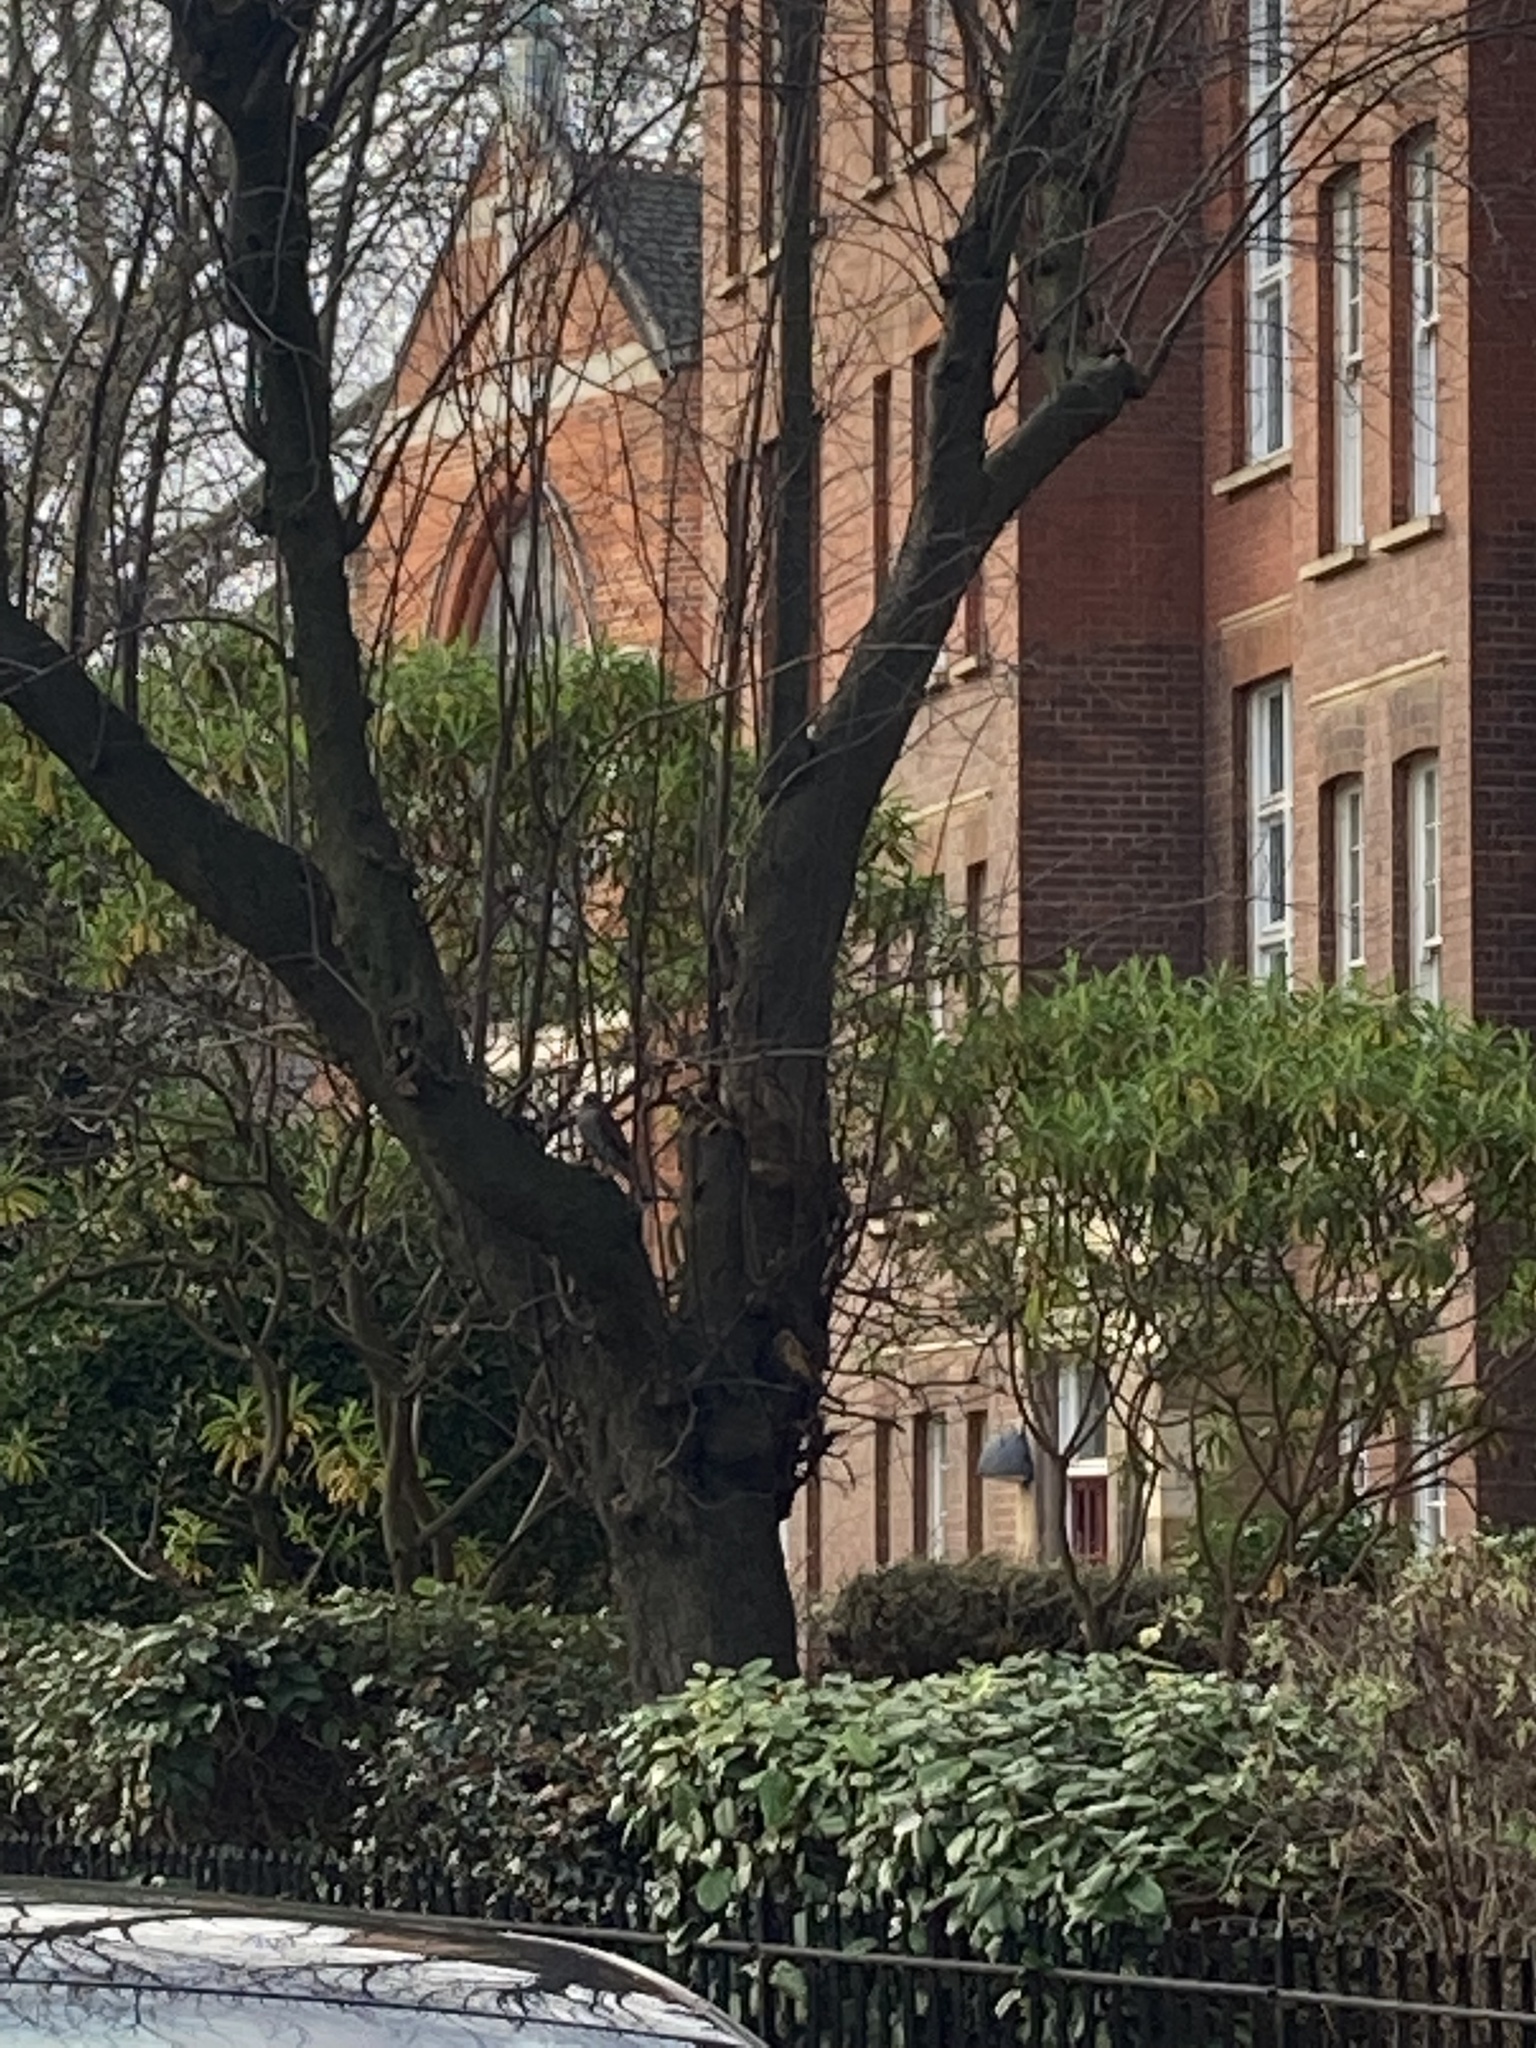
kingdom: Animalia
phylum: Chordata
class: Aves
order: Accipitriformes
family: Accipitridae
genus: Accipiter
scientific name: Accipiter nisus
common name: Eurasian sparrowhawk
